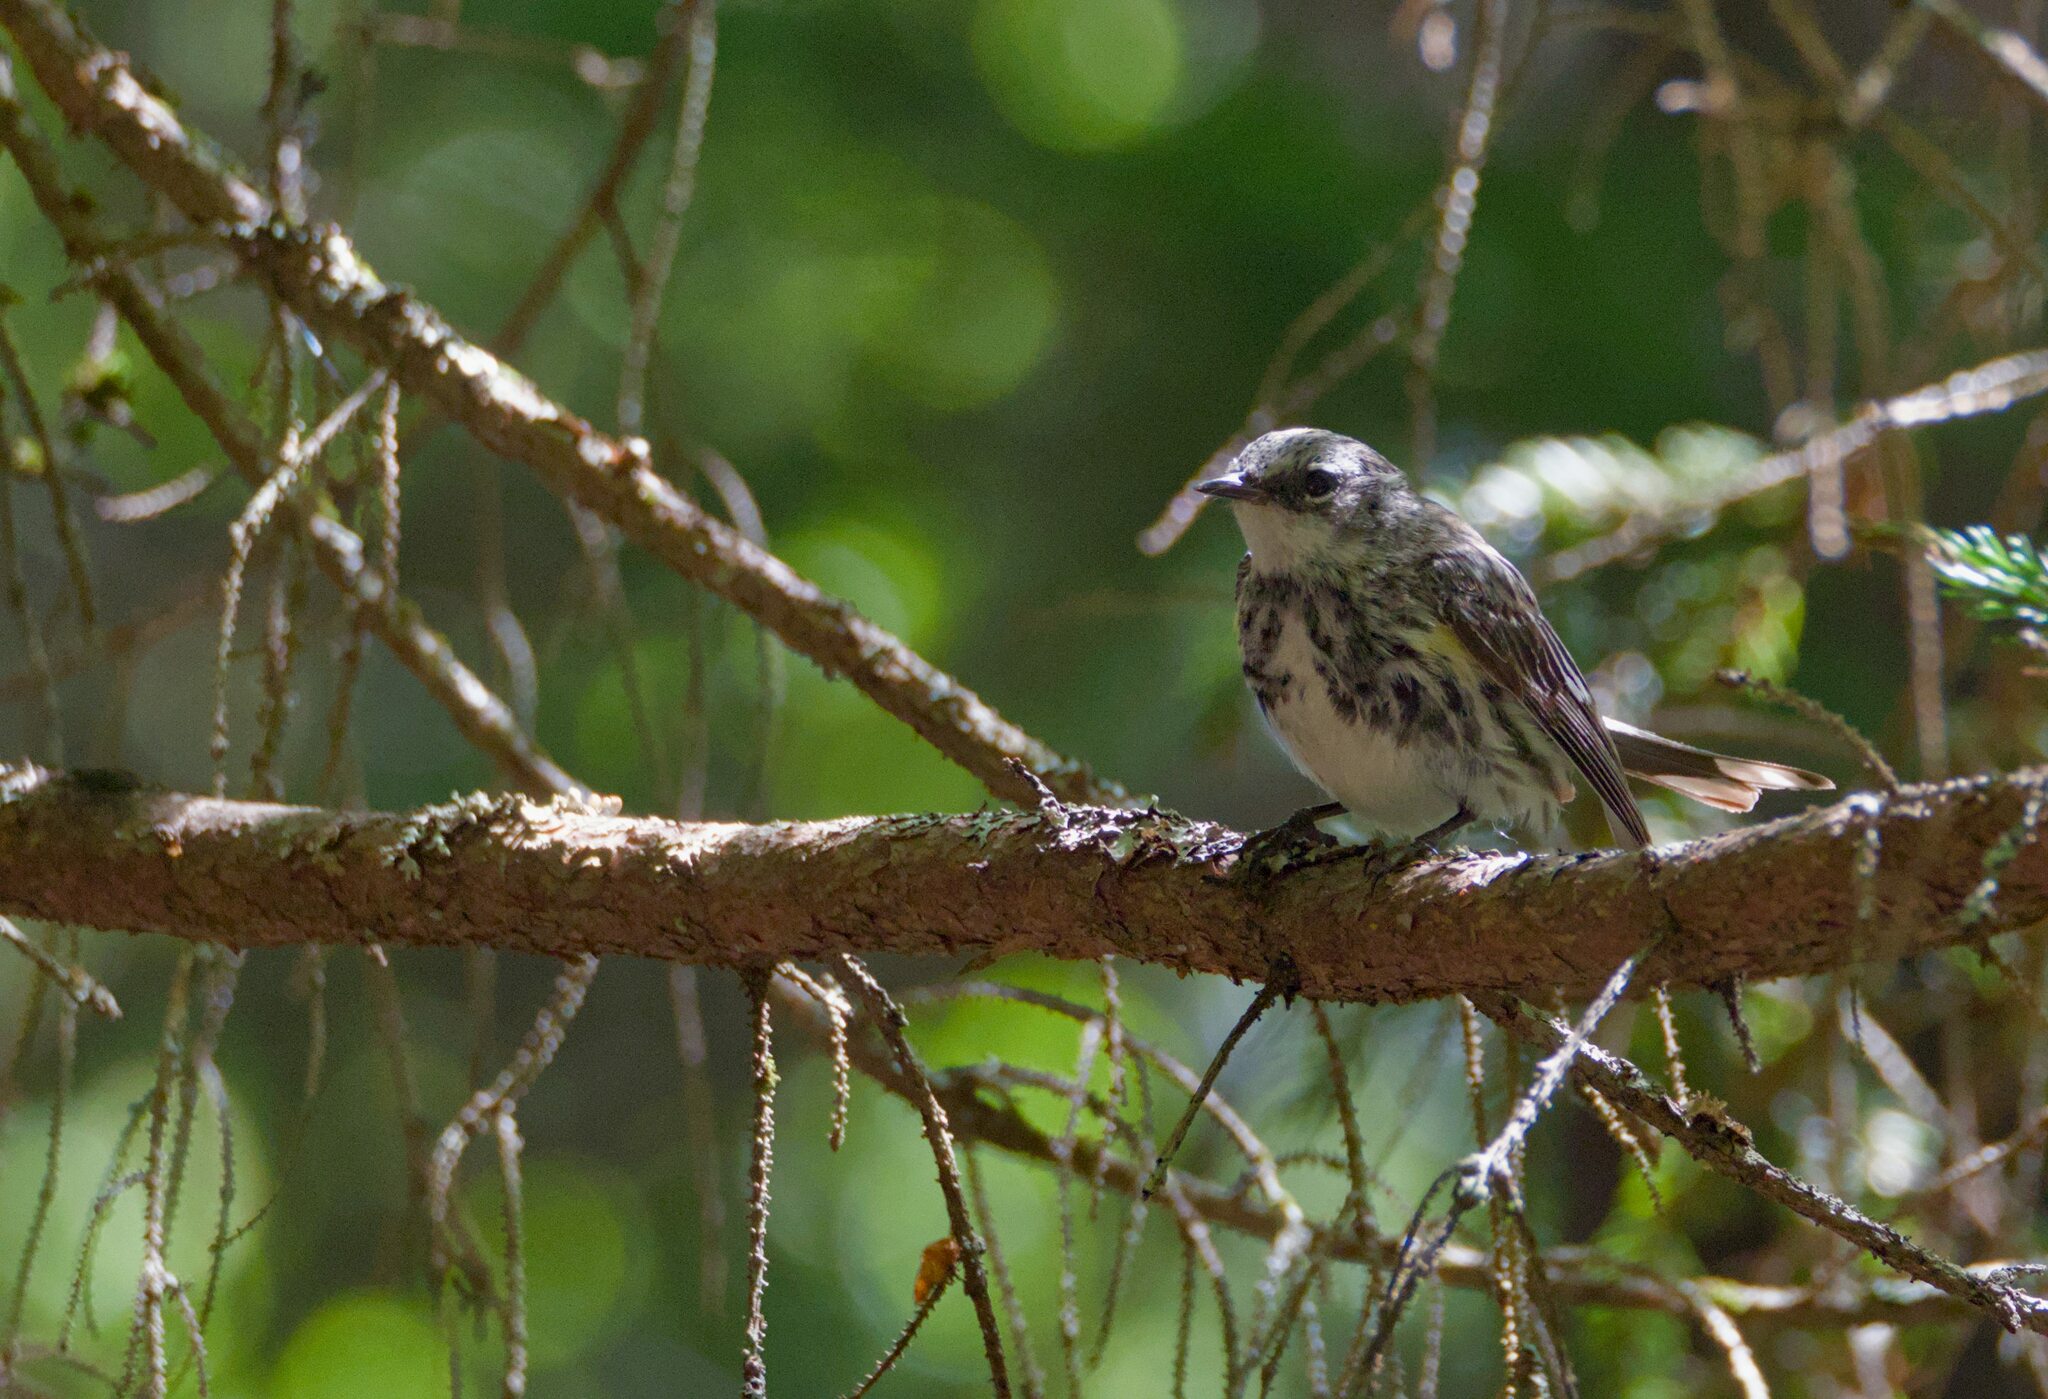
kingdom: Animalia
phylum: Chordata
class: Aves
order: Passeriformes
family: Parulidae
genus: Setophaga
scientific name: Setophaga coronata
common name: Myrtle warbler
